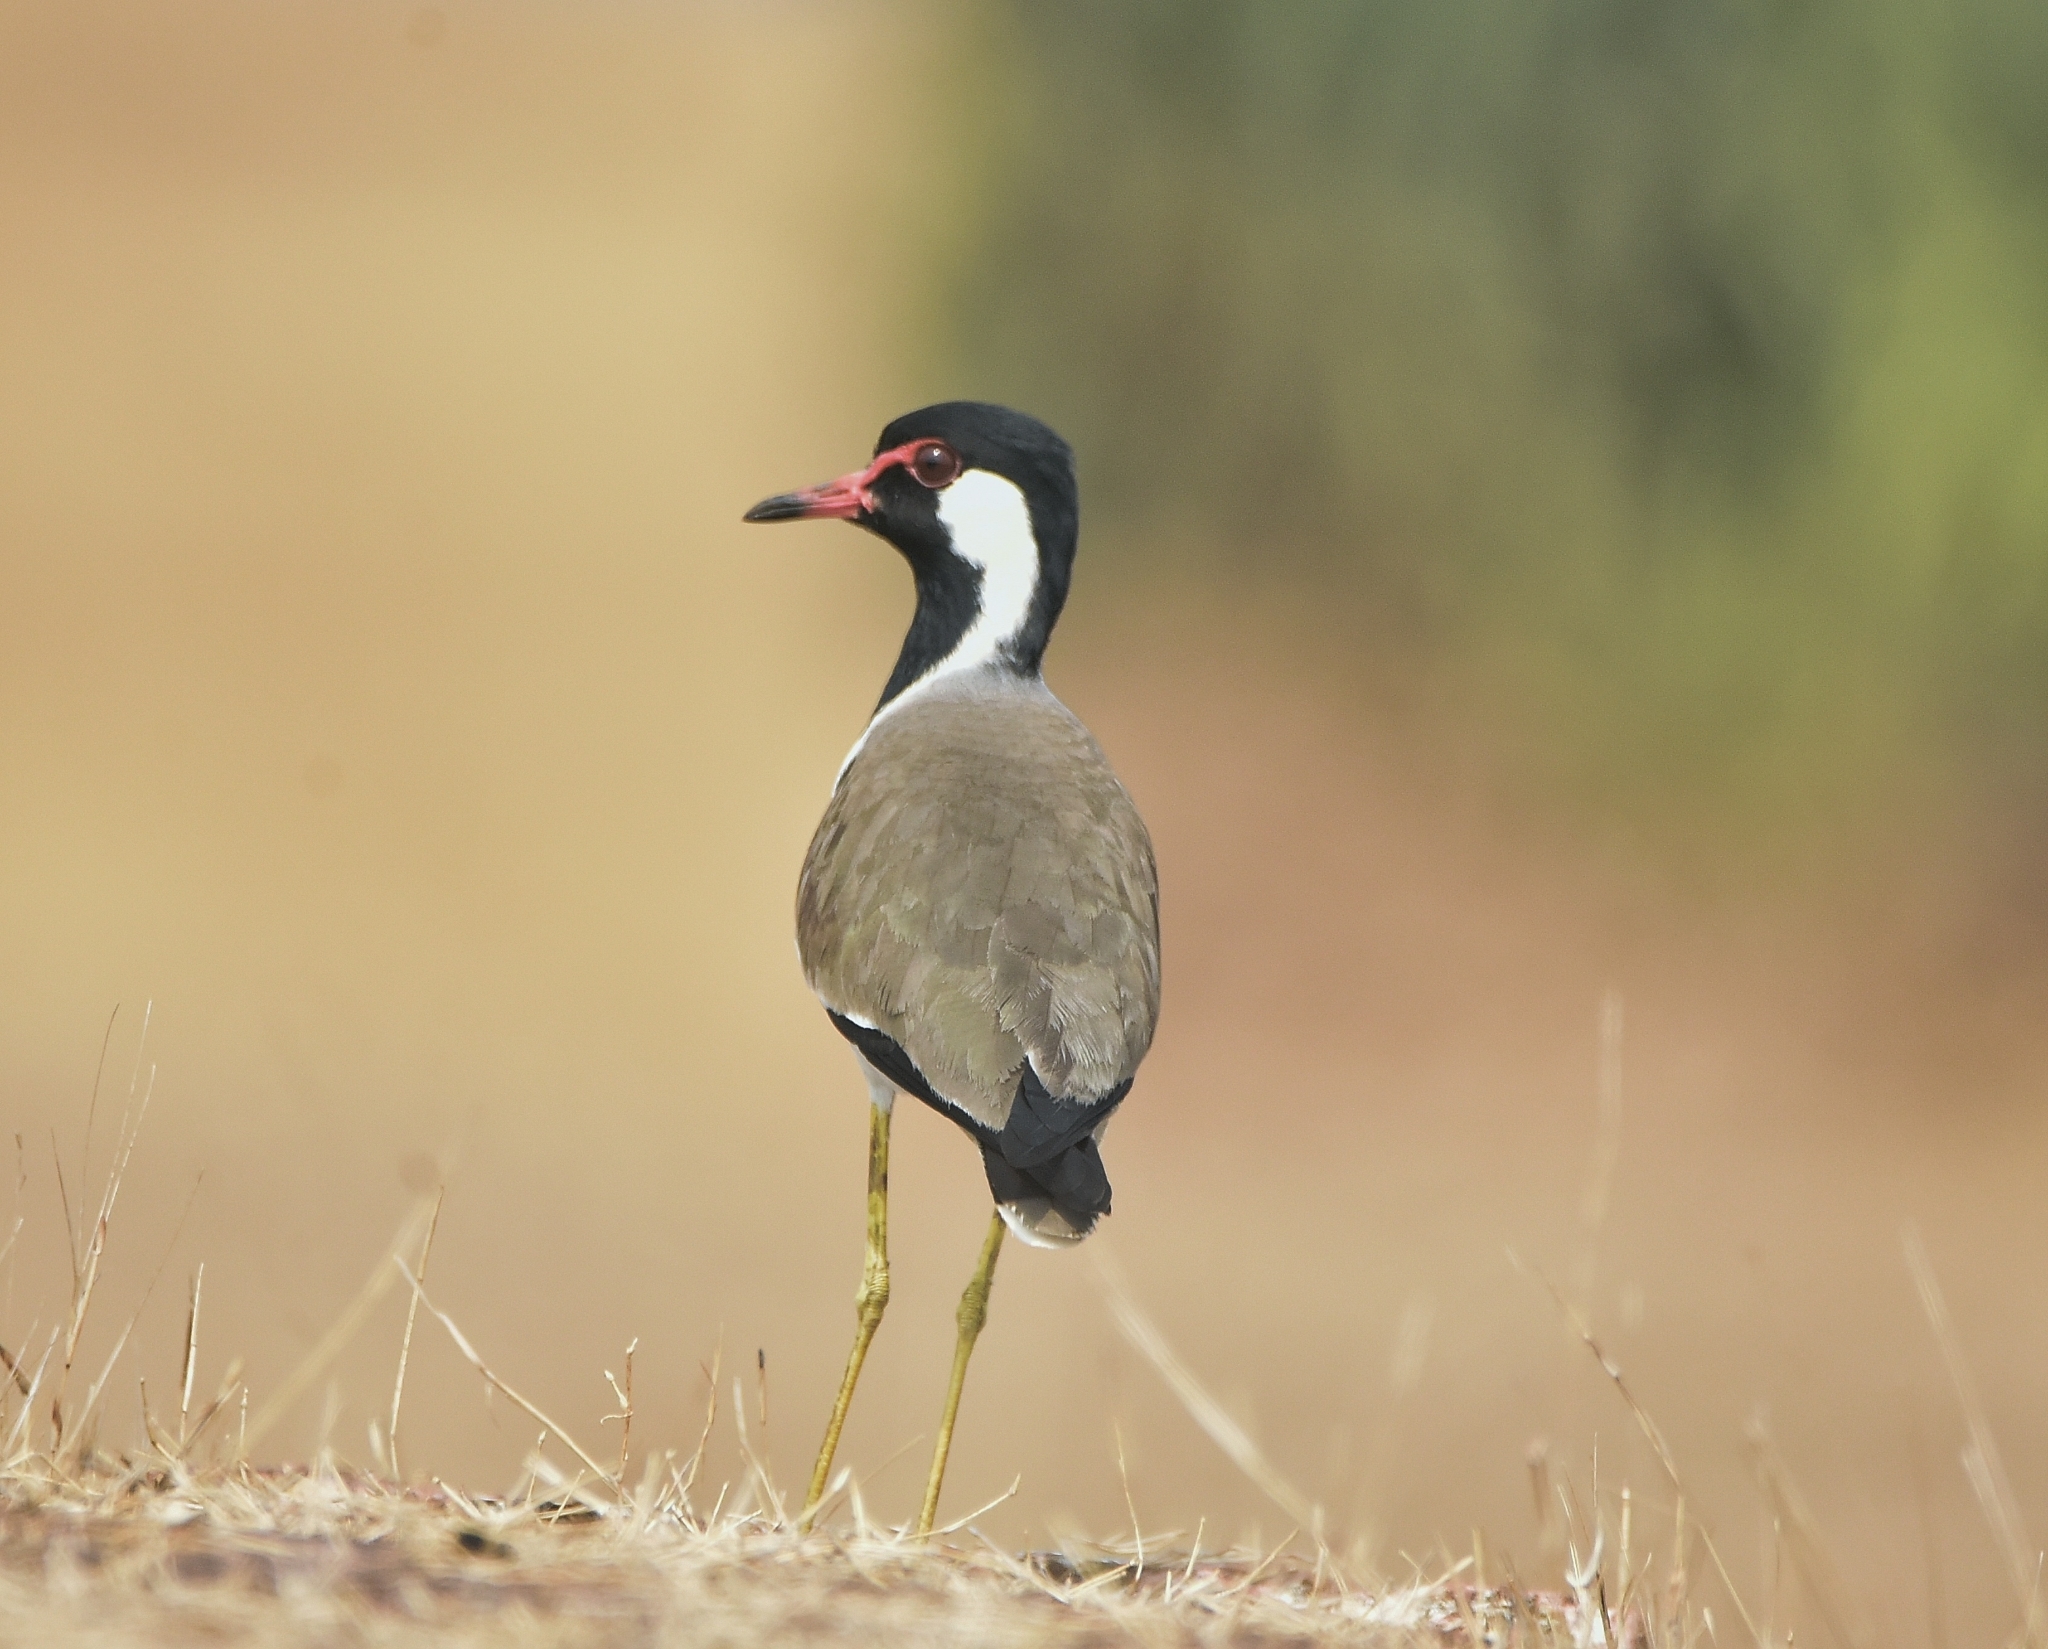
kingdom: Animalia
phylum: Chordata
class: Aves
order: Charadriiformes
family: Charadriidae
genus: Vanellus
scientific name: Vanellus indicus
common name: Red-wattled lapwing
